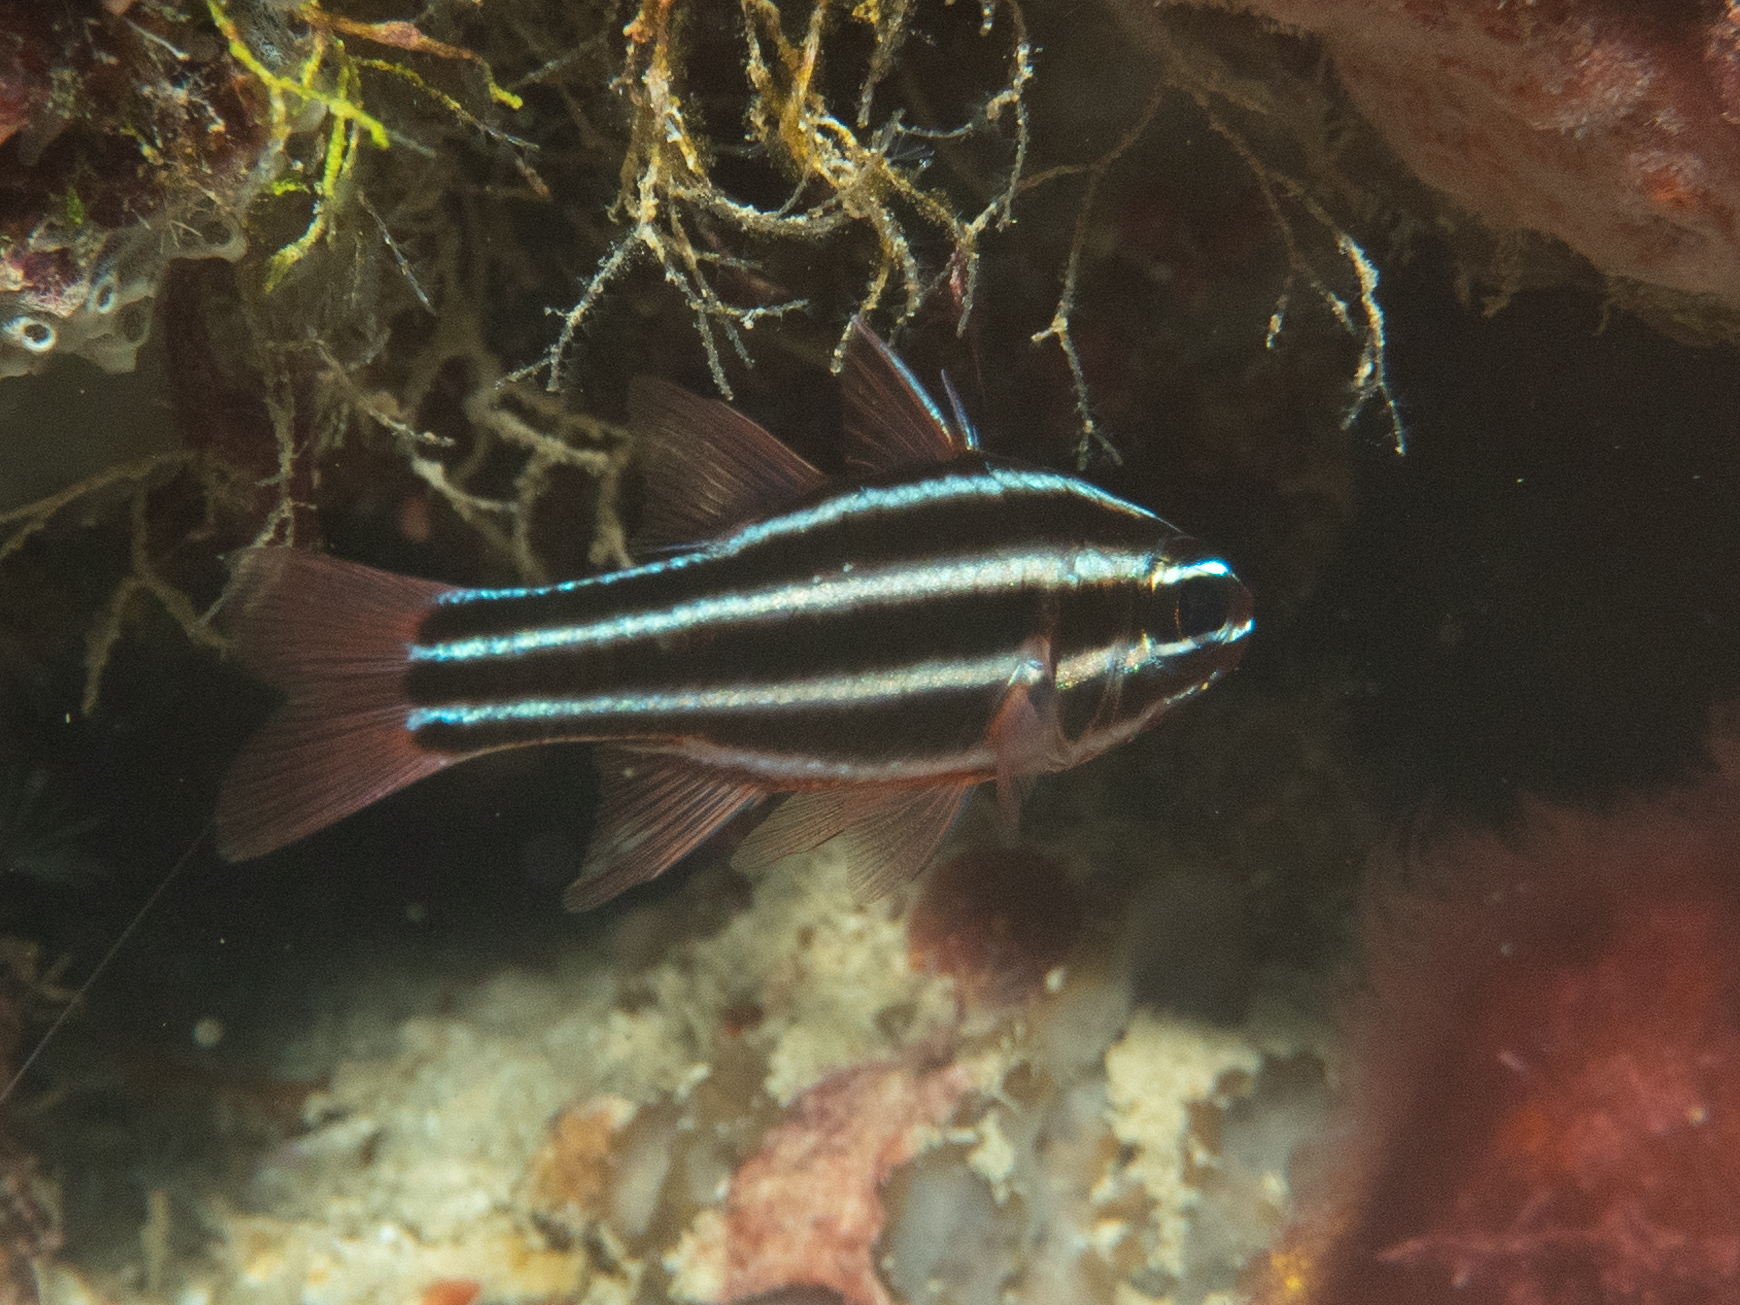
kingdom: Animalia
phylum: Chordata
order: Perciformes
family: Apogonidae
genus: Ostorhinchus
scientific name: Ostorhinchus nigrofasciatus
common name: Blackstripe cardinalfish
